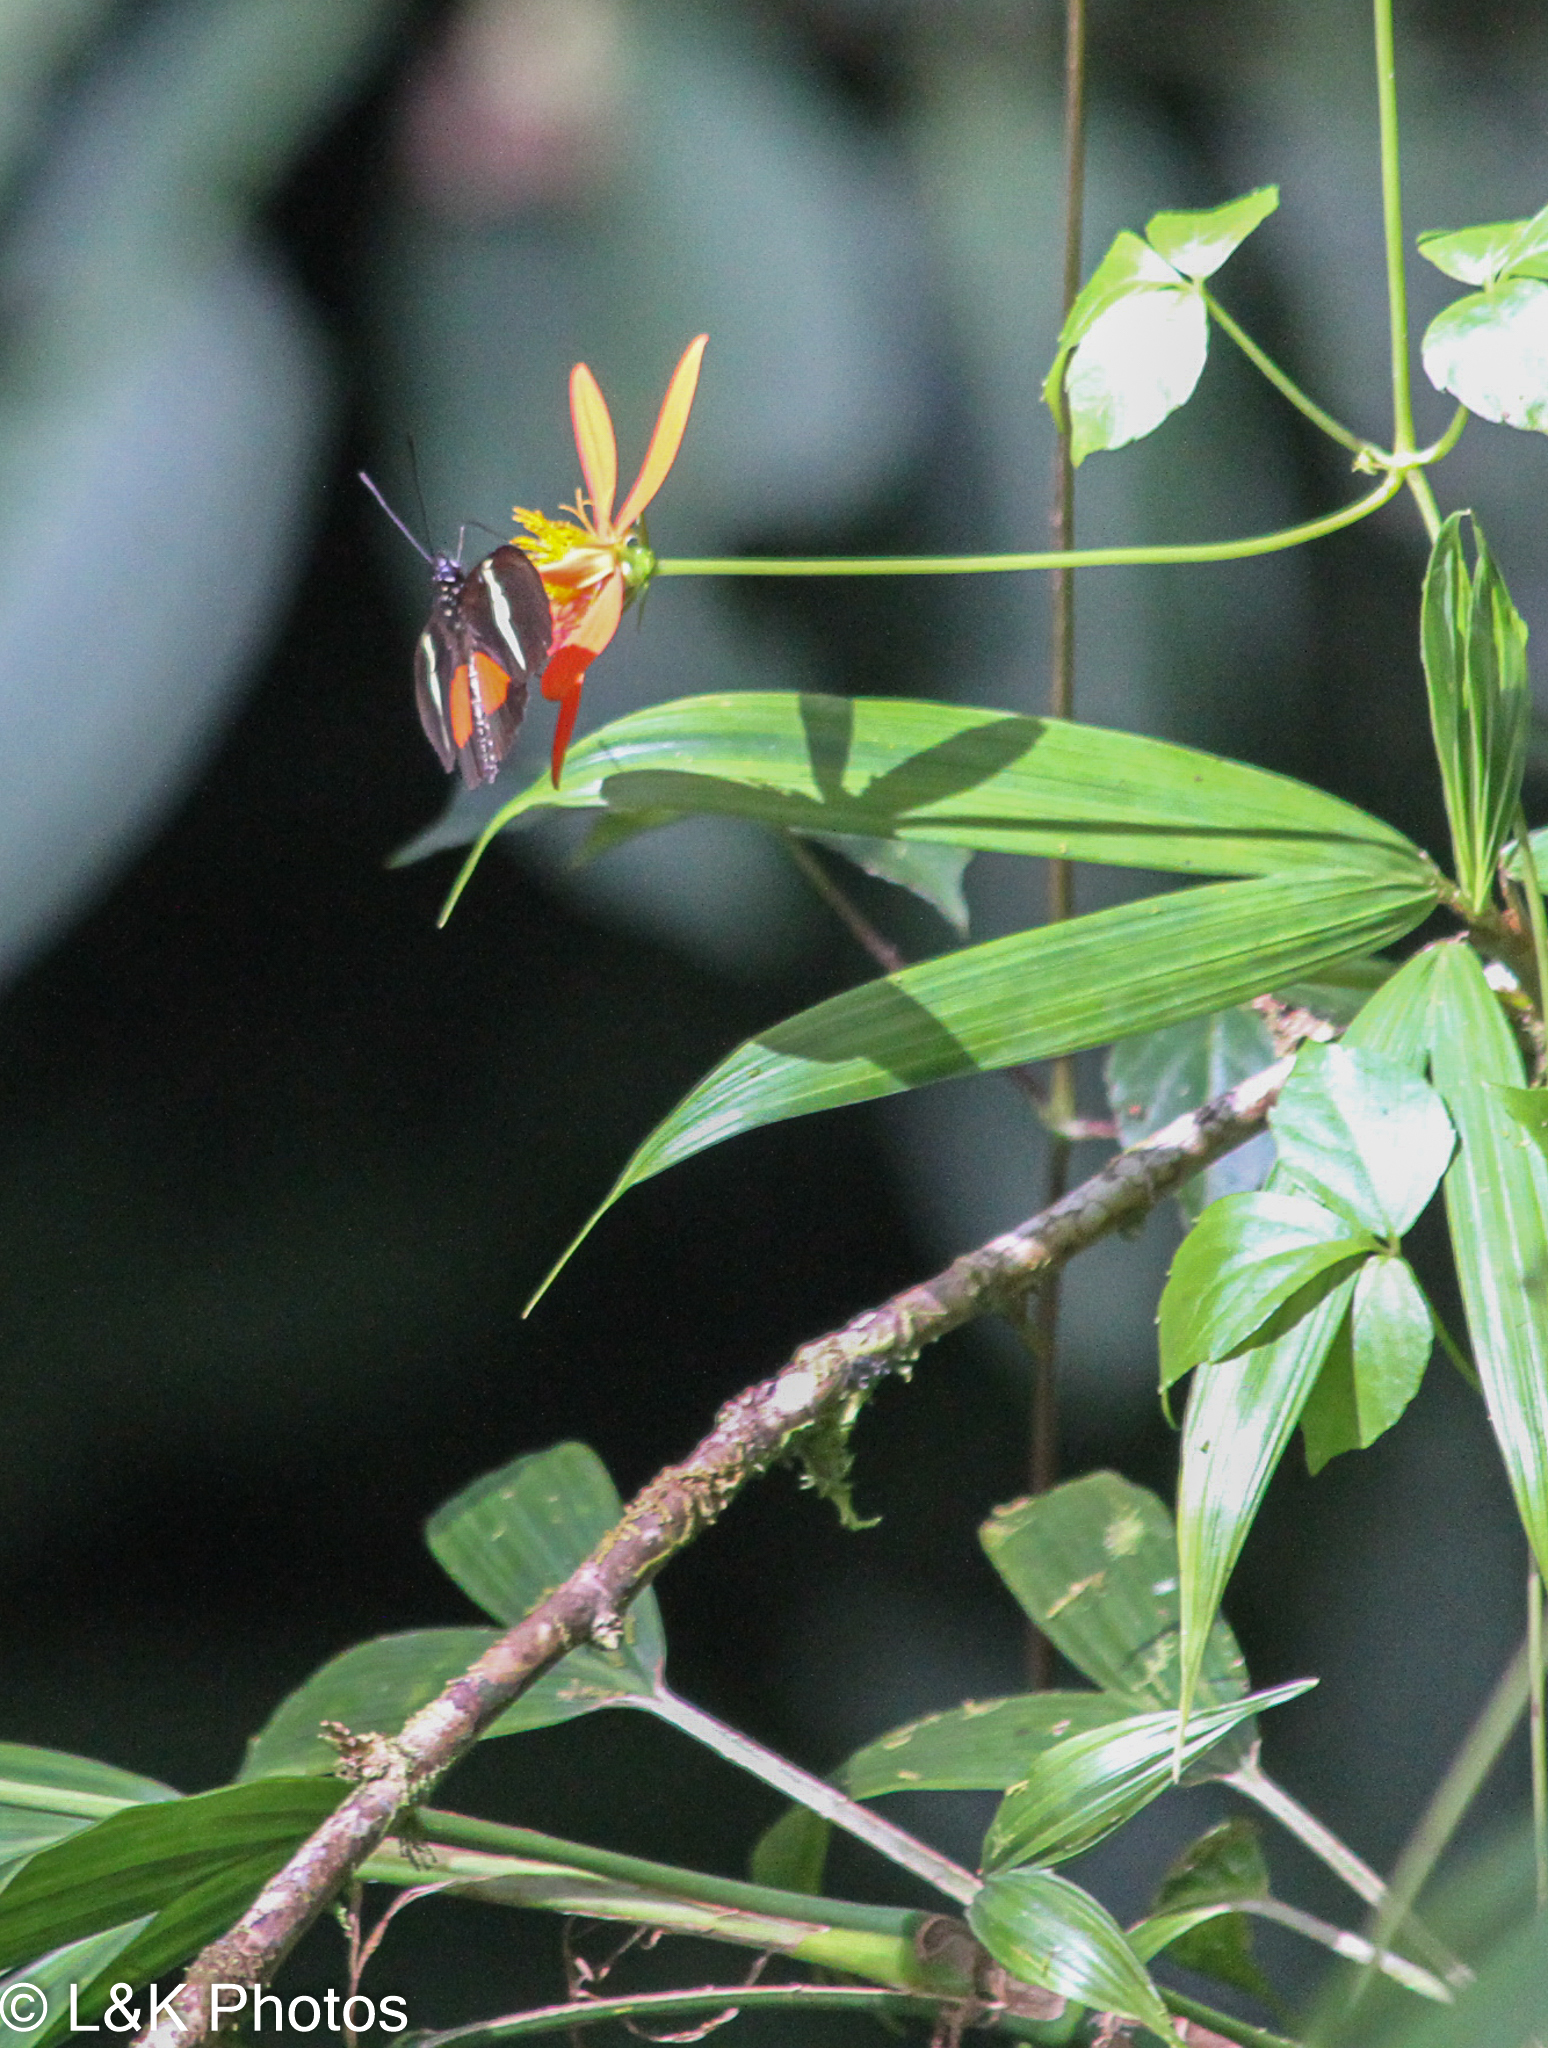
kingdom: Animalia
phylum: Arthropoda
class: Insecta
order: Lepidoptera
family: Nymphalidae
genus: Heliconius
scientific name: Heliconius clysonymus
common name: Clysonymus longwing
